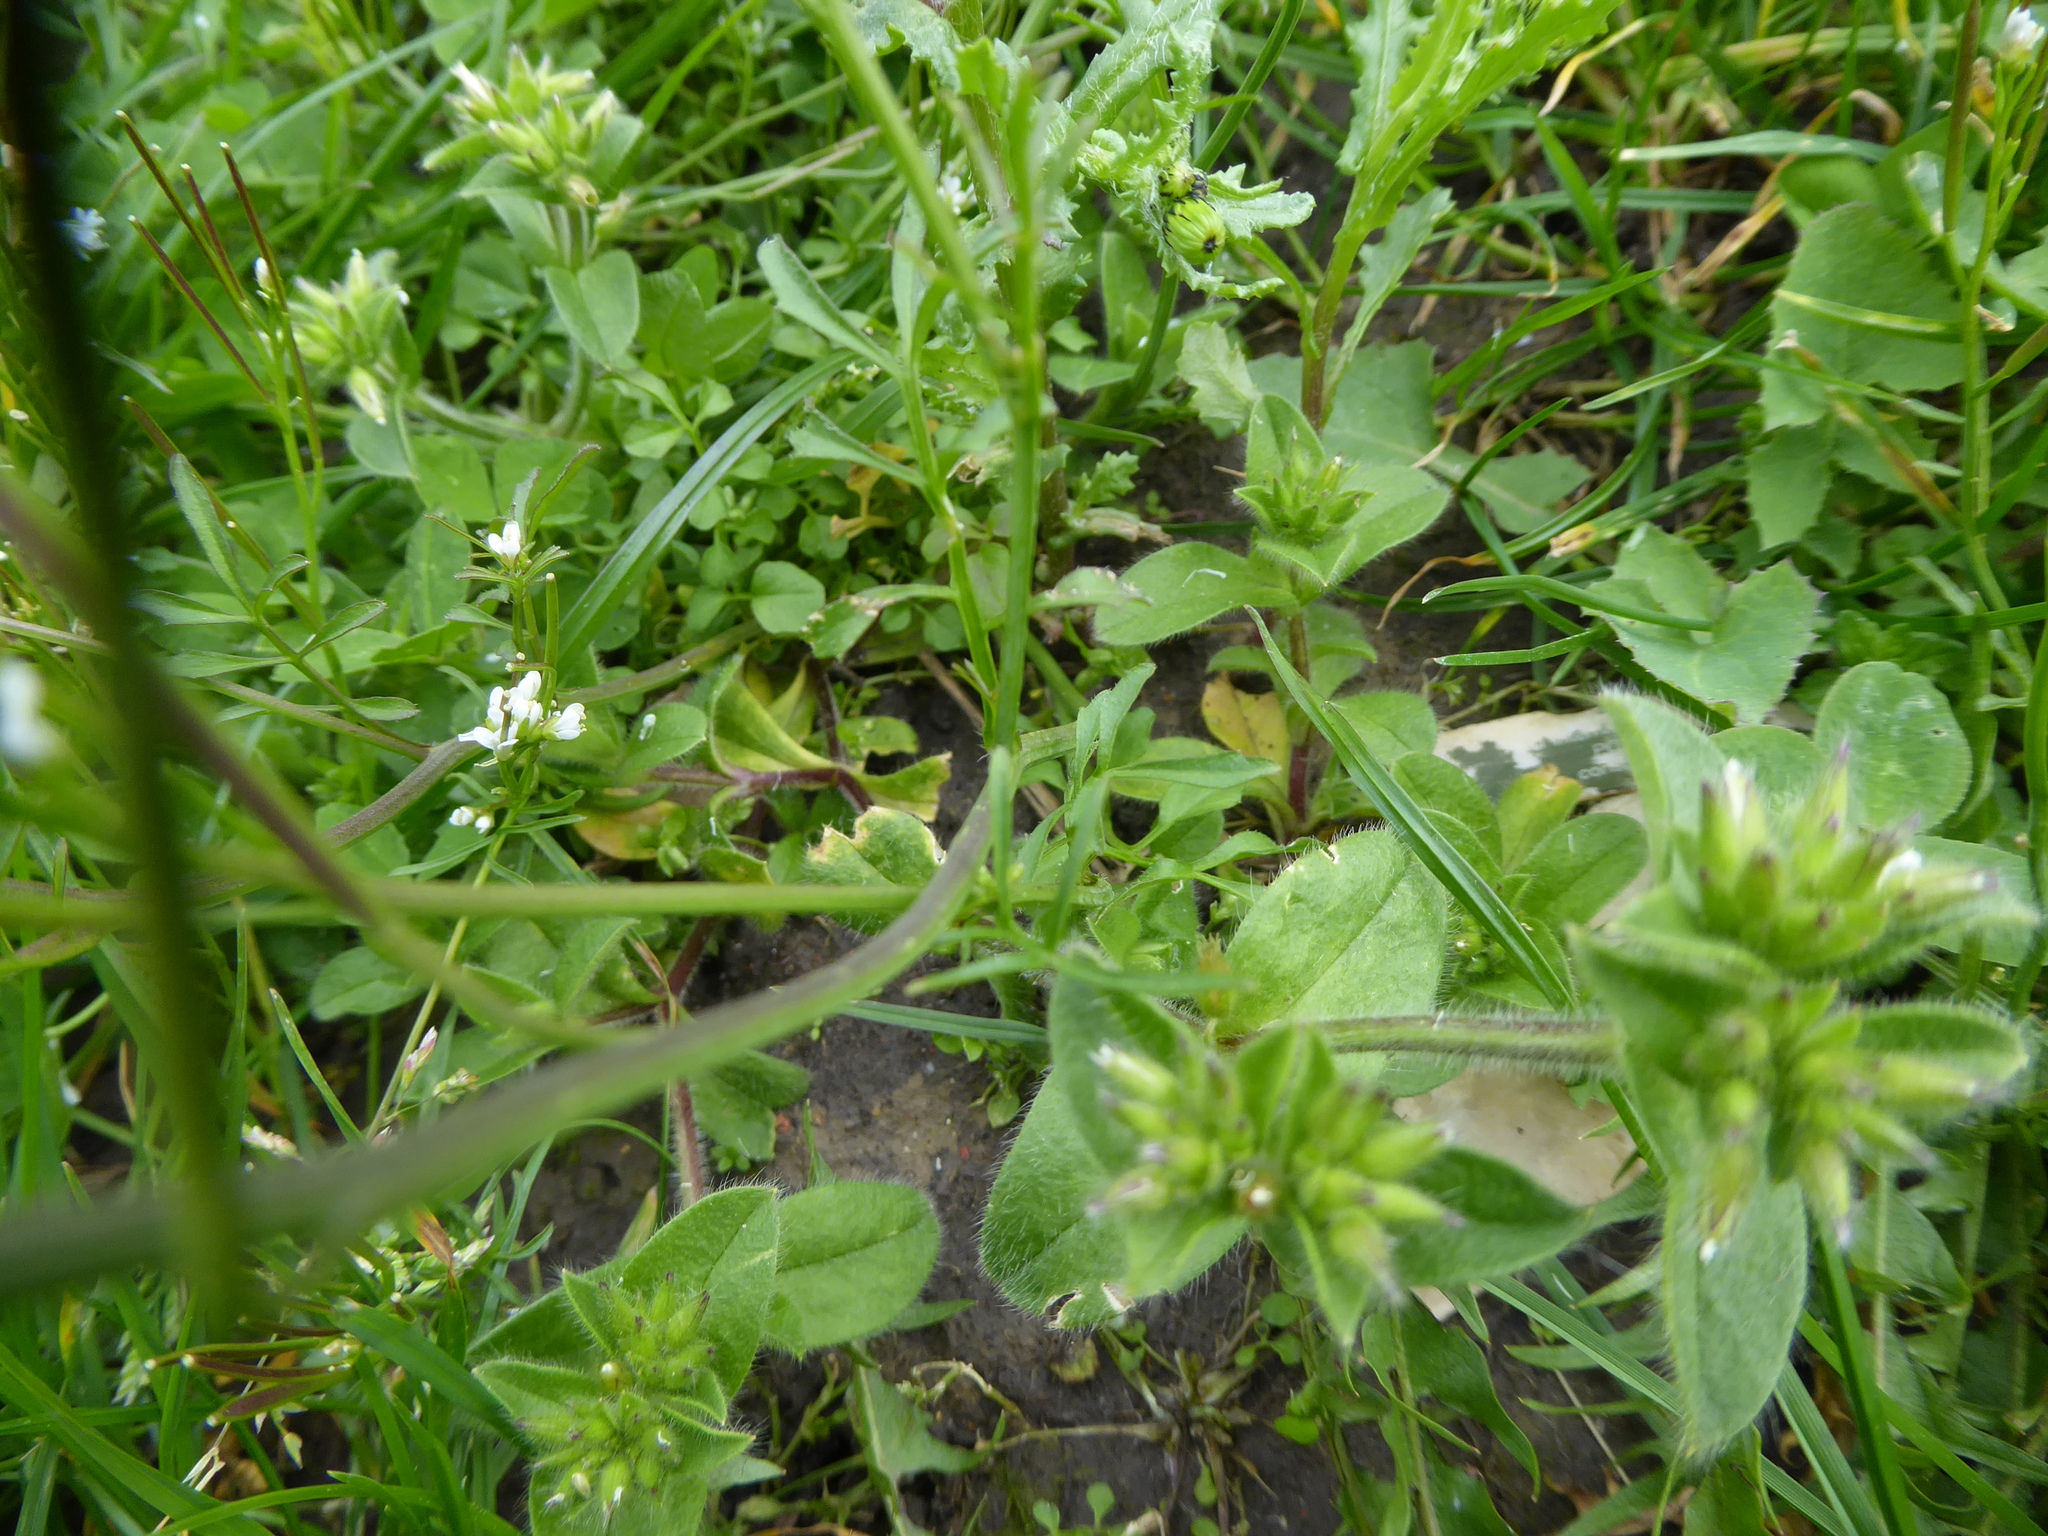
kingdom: Plantae
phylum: Tracheophyta
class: Magnoliopsida
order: Brassicales
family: Brassicaceae
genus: Cardamine
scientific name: Cardamine hirsuta
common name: Hairy bittercress
